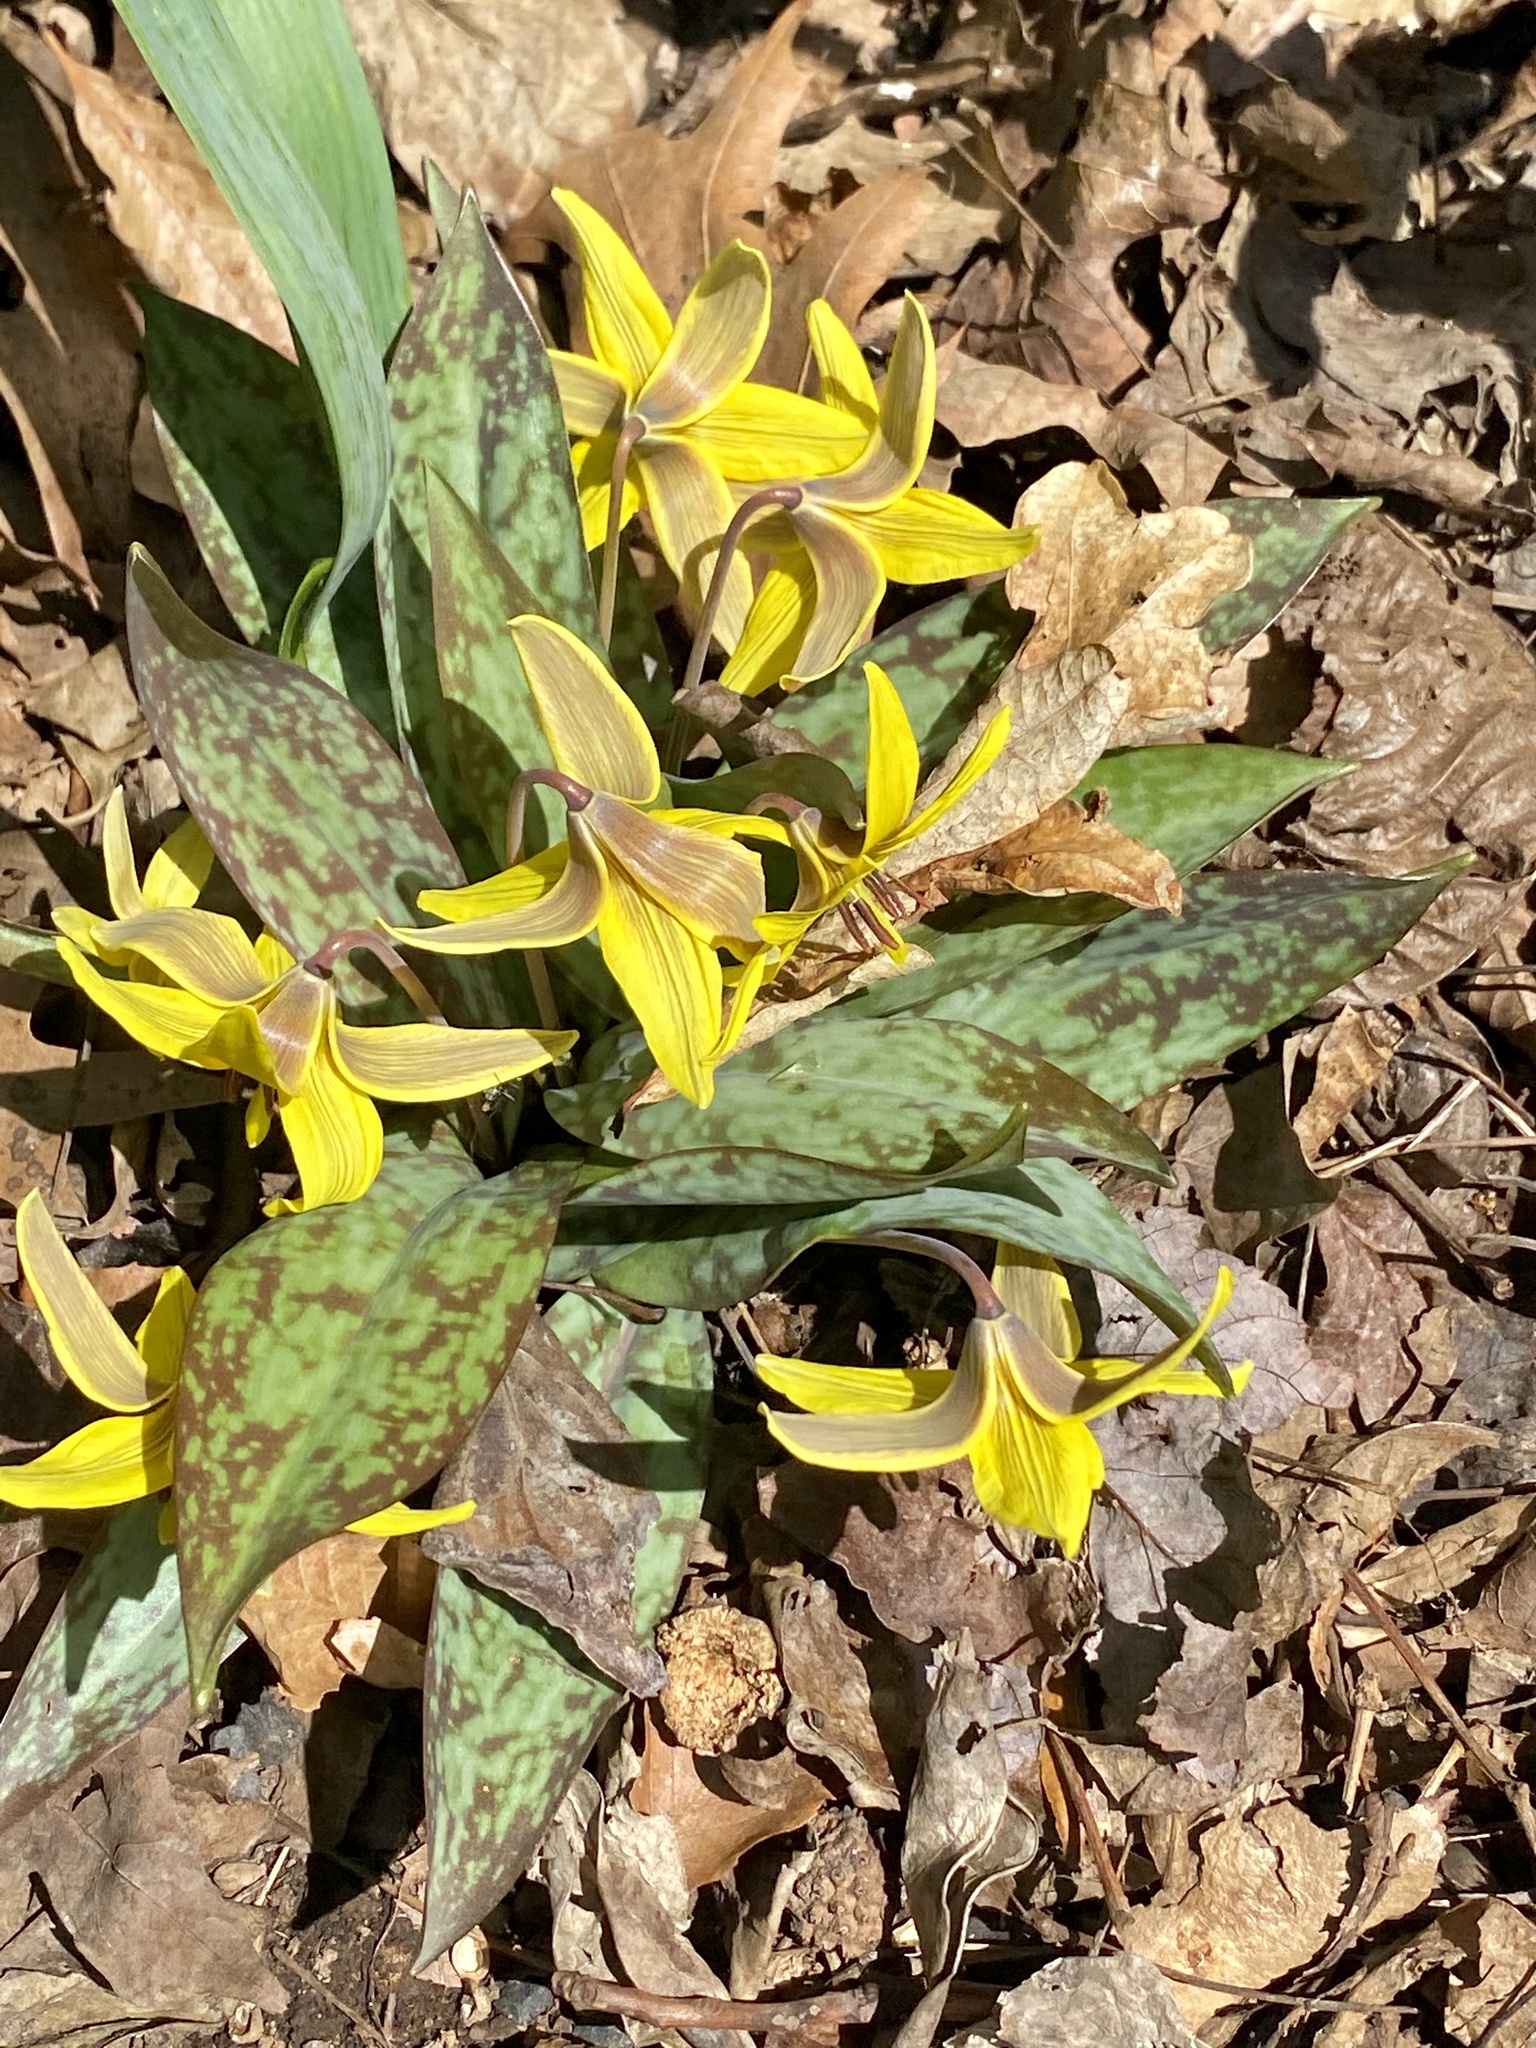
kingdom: Plantae
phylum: Tracheophyta
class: Liliopsida
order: Liliales
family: Liliaceae
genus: Erythronium
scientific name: Erythronium americanum
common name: Yellow adder's-tongue
